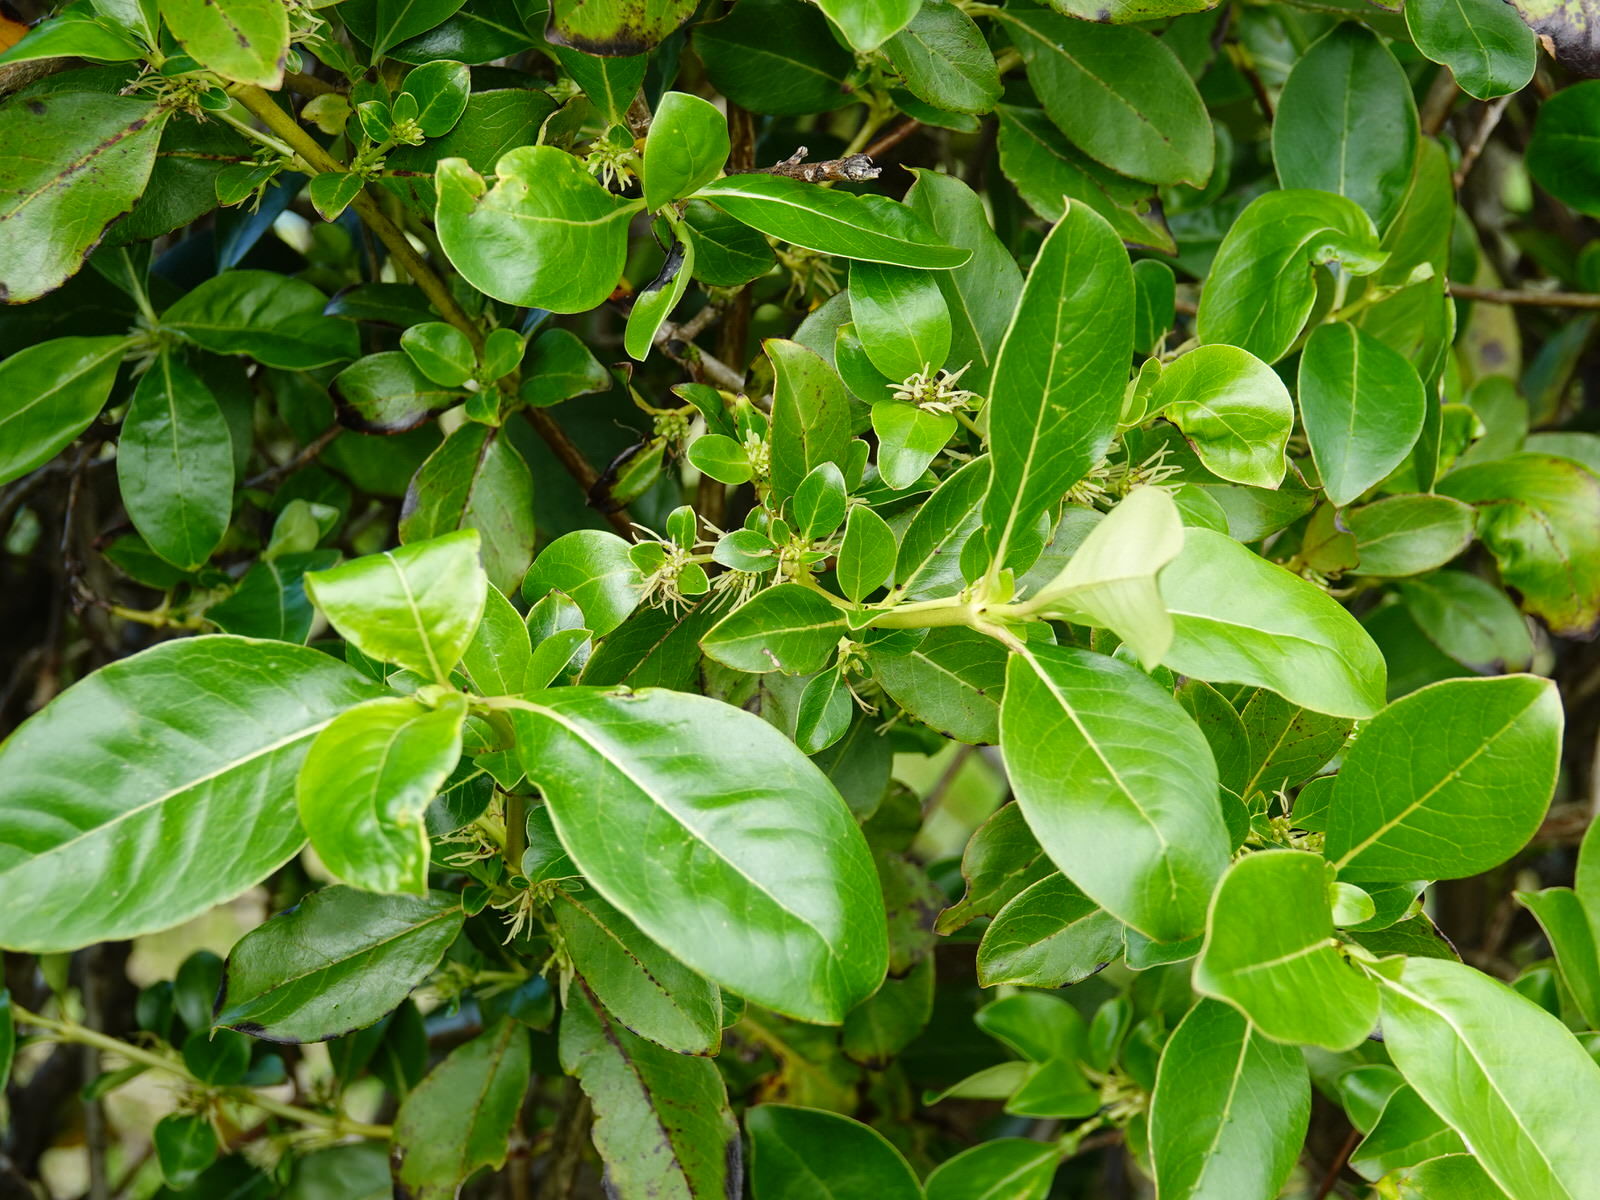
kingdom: Plantae
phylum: Tracheophyta
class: Magnoliopsida
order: Gentianales
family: Rubiaceae
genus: Coprosma
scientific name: Coprosma robusta
